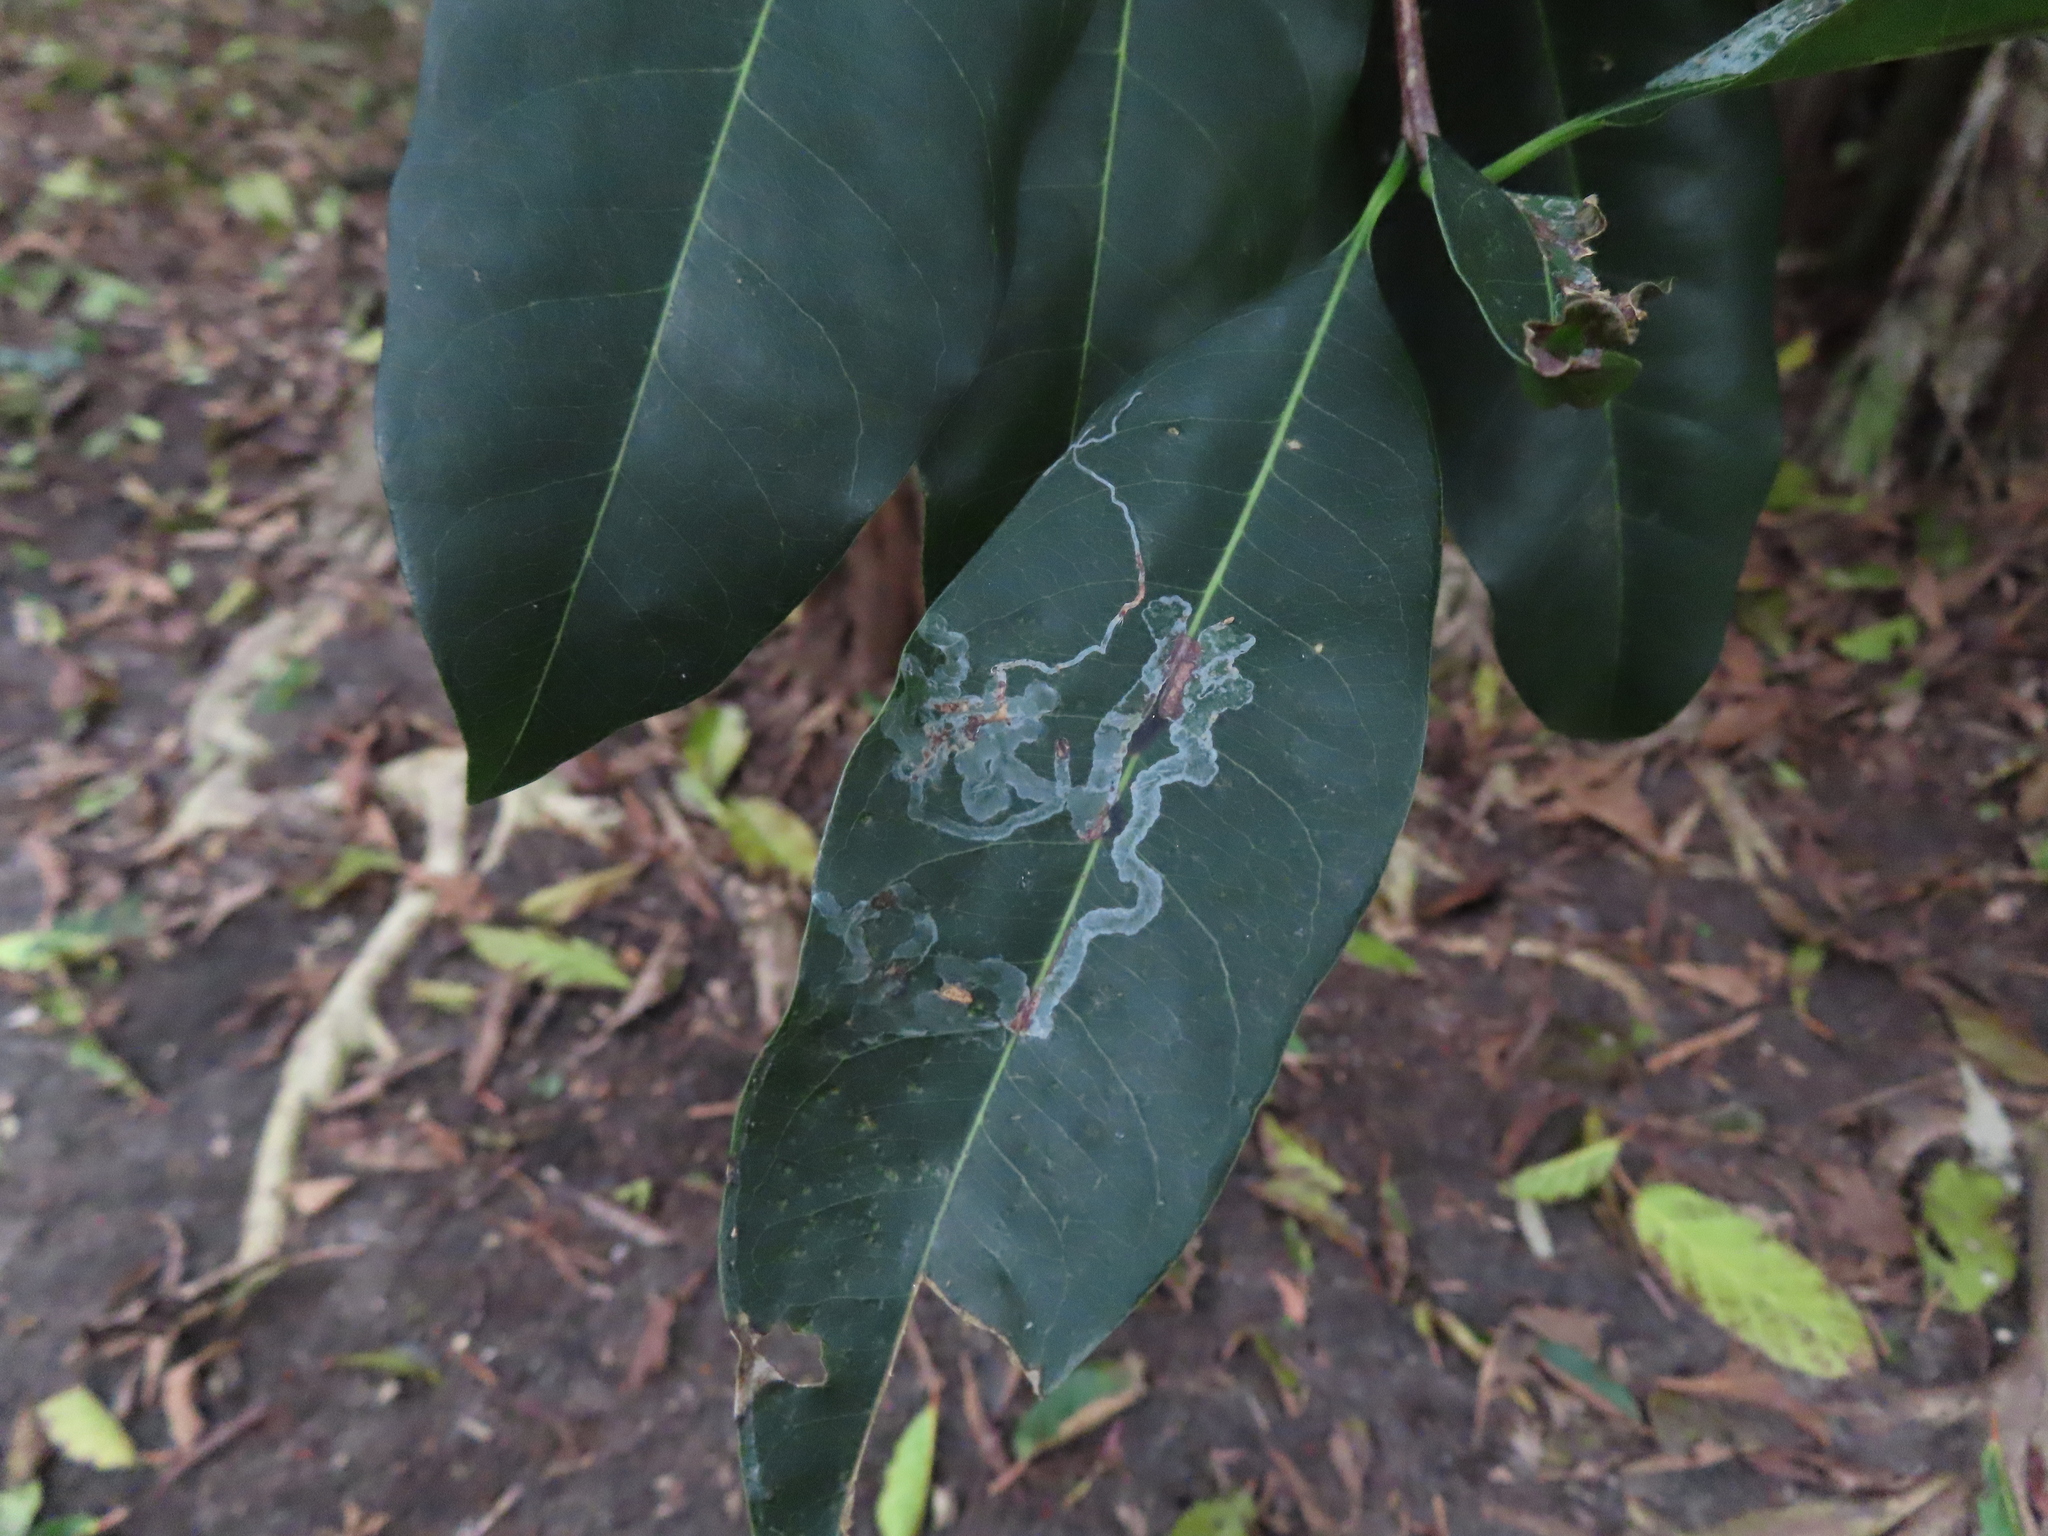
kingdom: Animalia
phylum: Arthropoda
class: Insecta
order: Diptera
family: Agromyzidae
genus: Liriomyza
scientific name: Liriomyza schmidti
